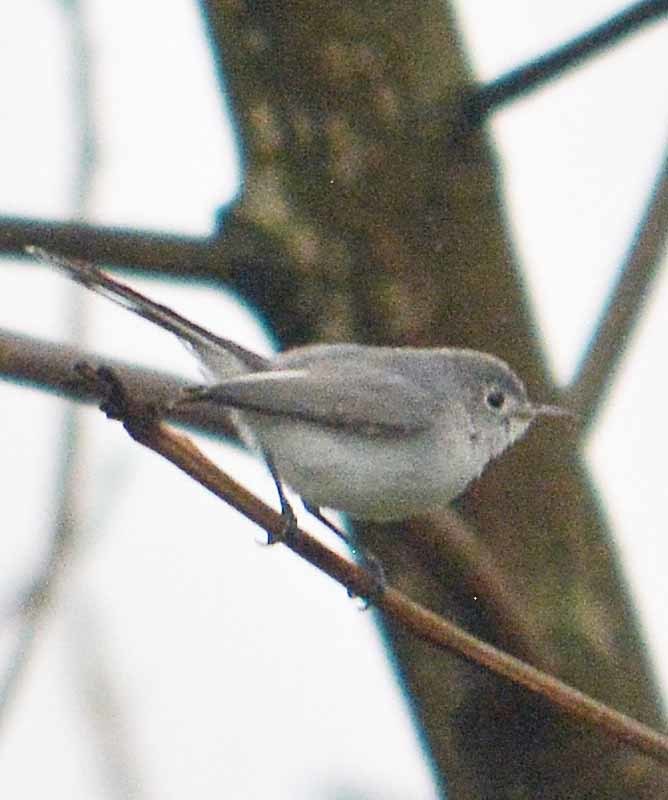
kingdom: Animalia
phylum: Chordata
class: Aves
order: Passeriformes
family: Polioptilidae
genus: Polioptila
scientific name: Polioptila caerulea
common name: Blue-gray gnatcatcher
